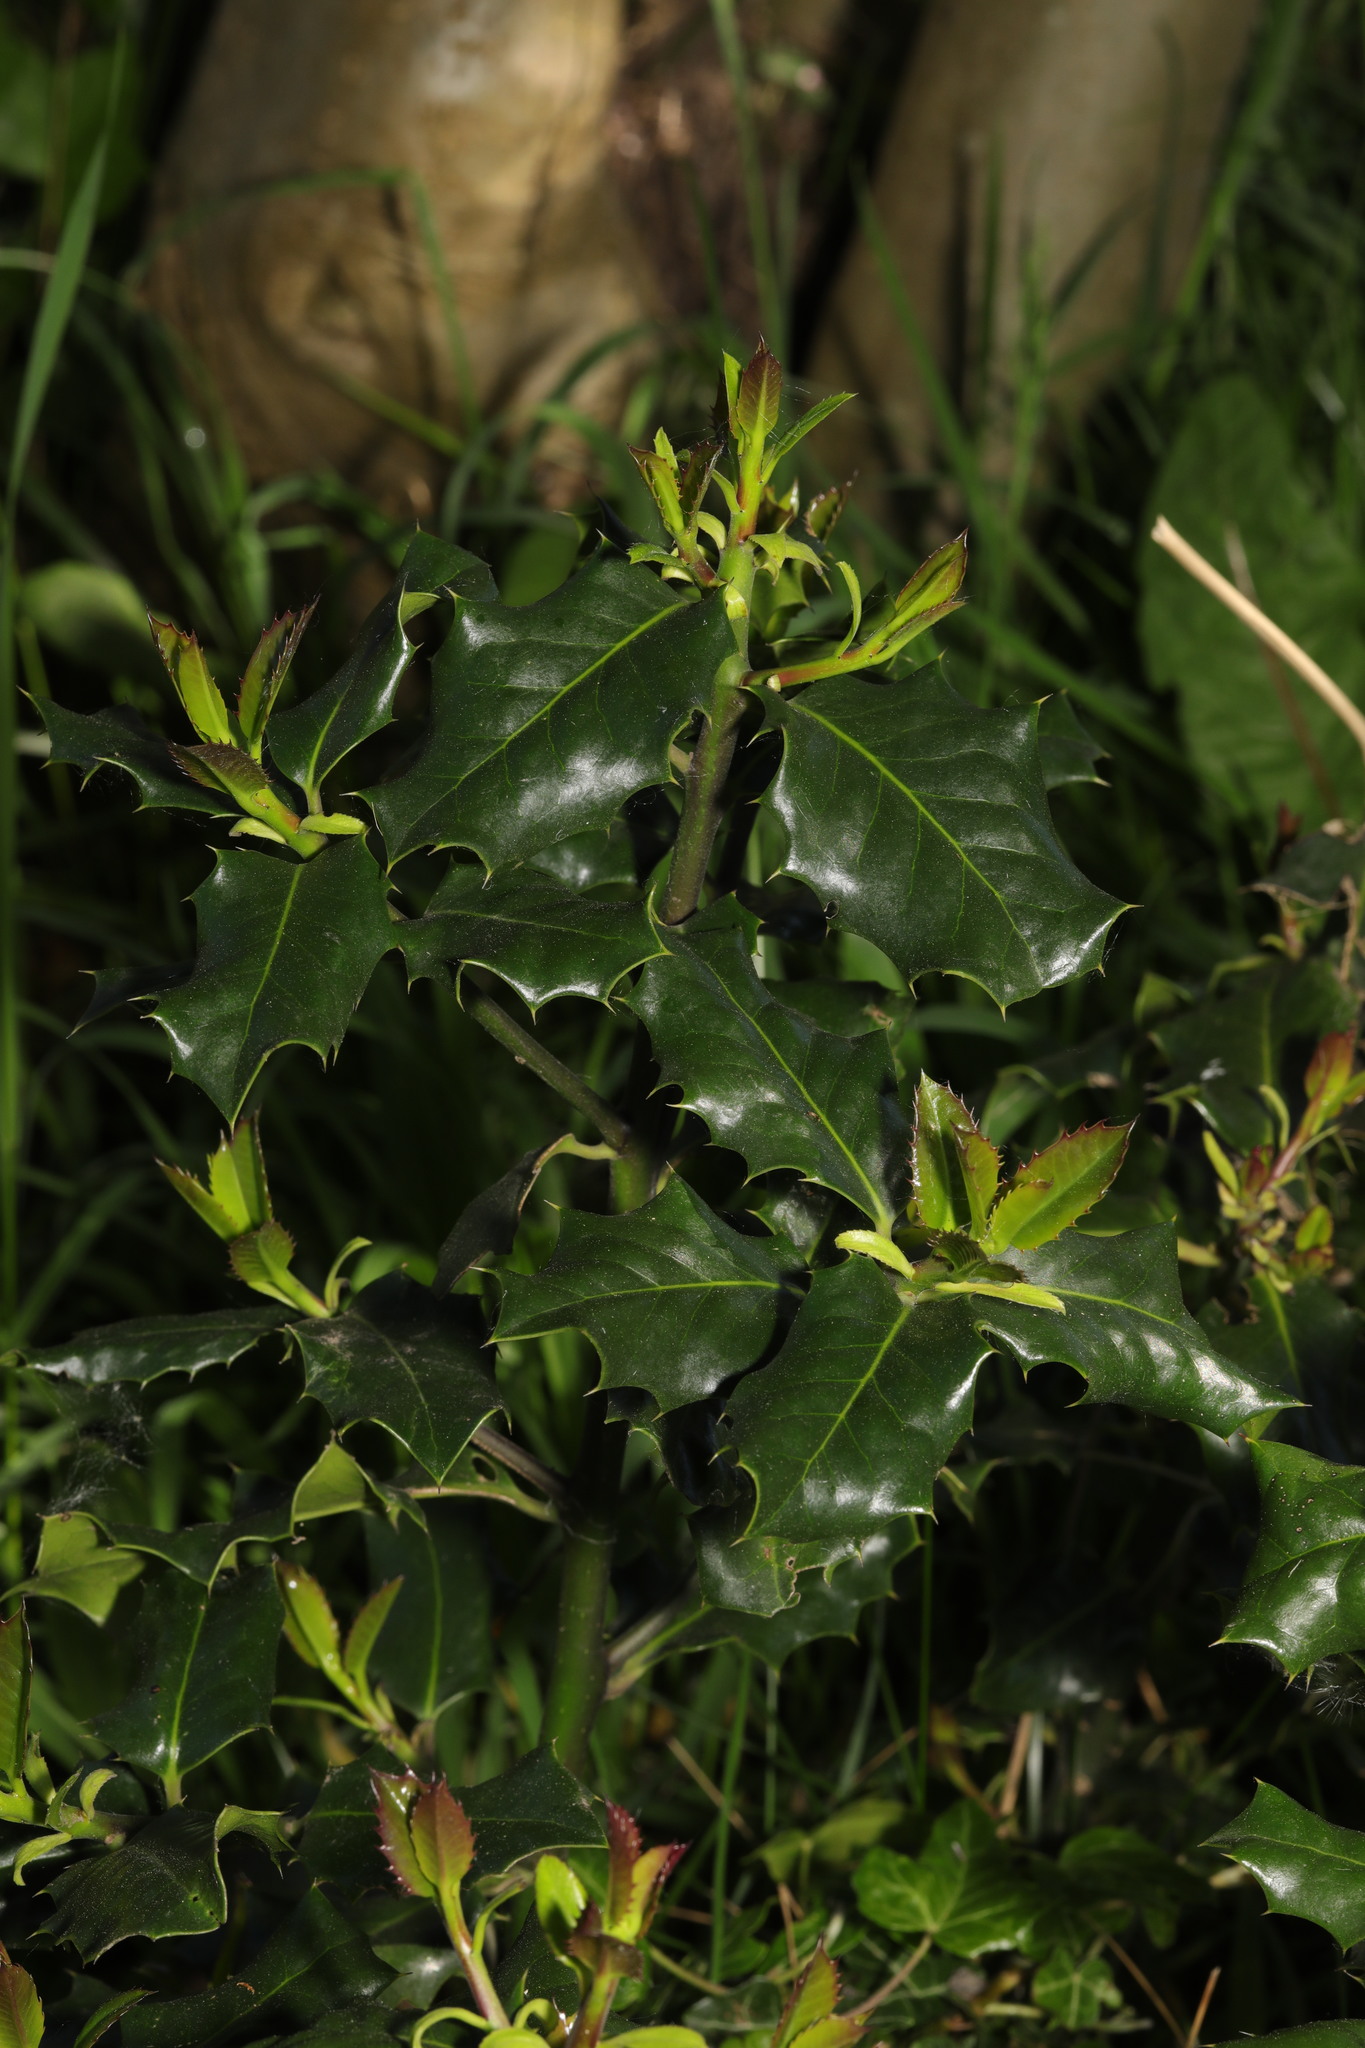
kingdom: Plantae
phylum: Tracheophyta
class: Magnoliopsida
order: Aquifoliales
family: Aquifoliaceae
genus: Ilex
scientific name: Ilex aquifolium
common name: English holly
